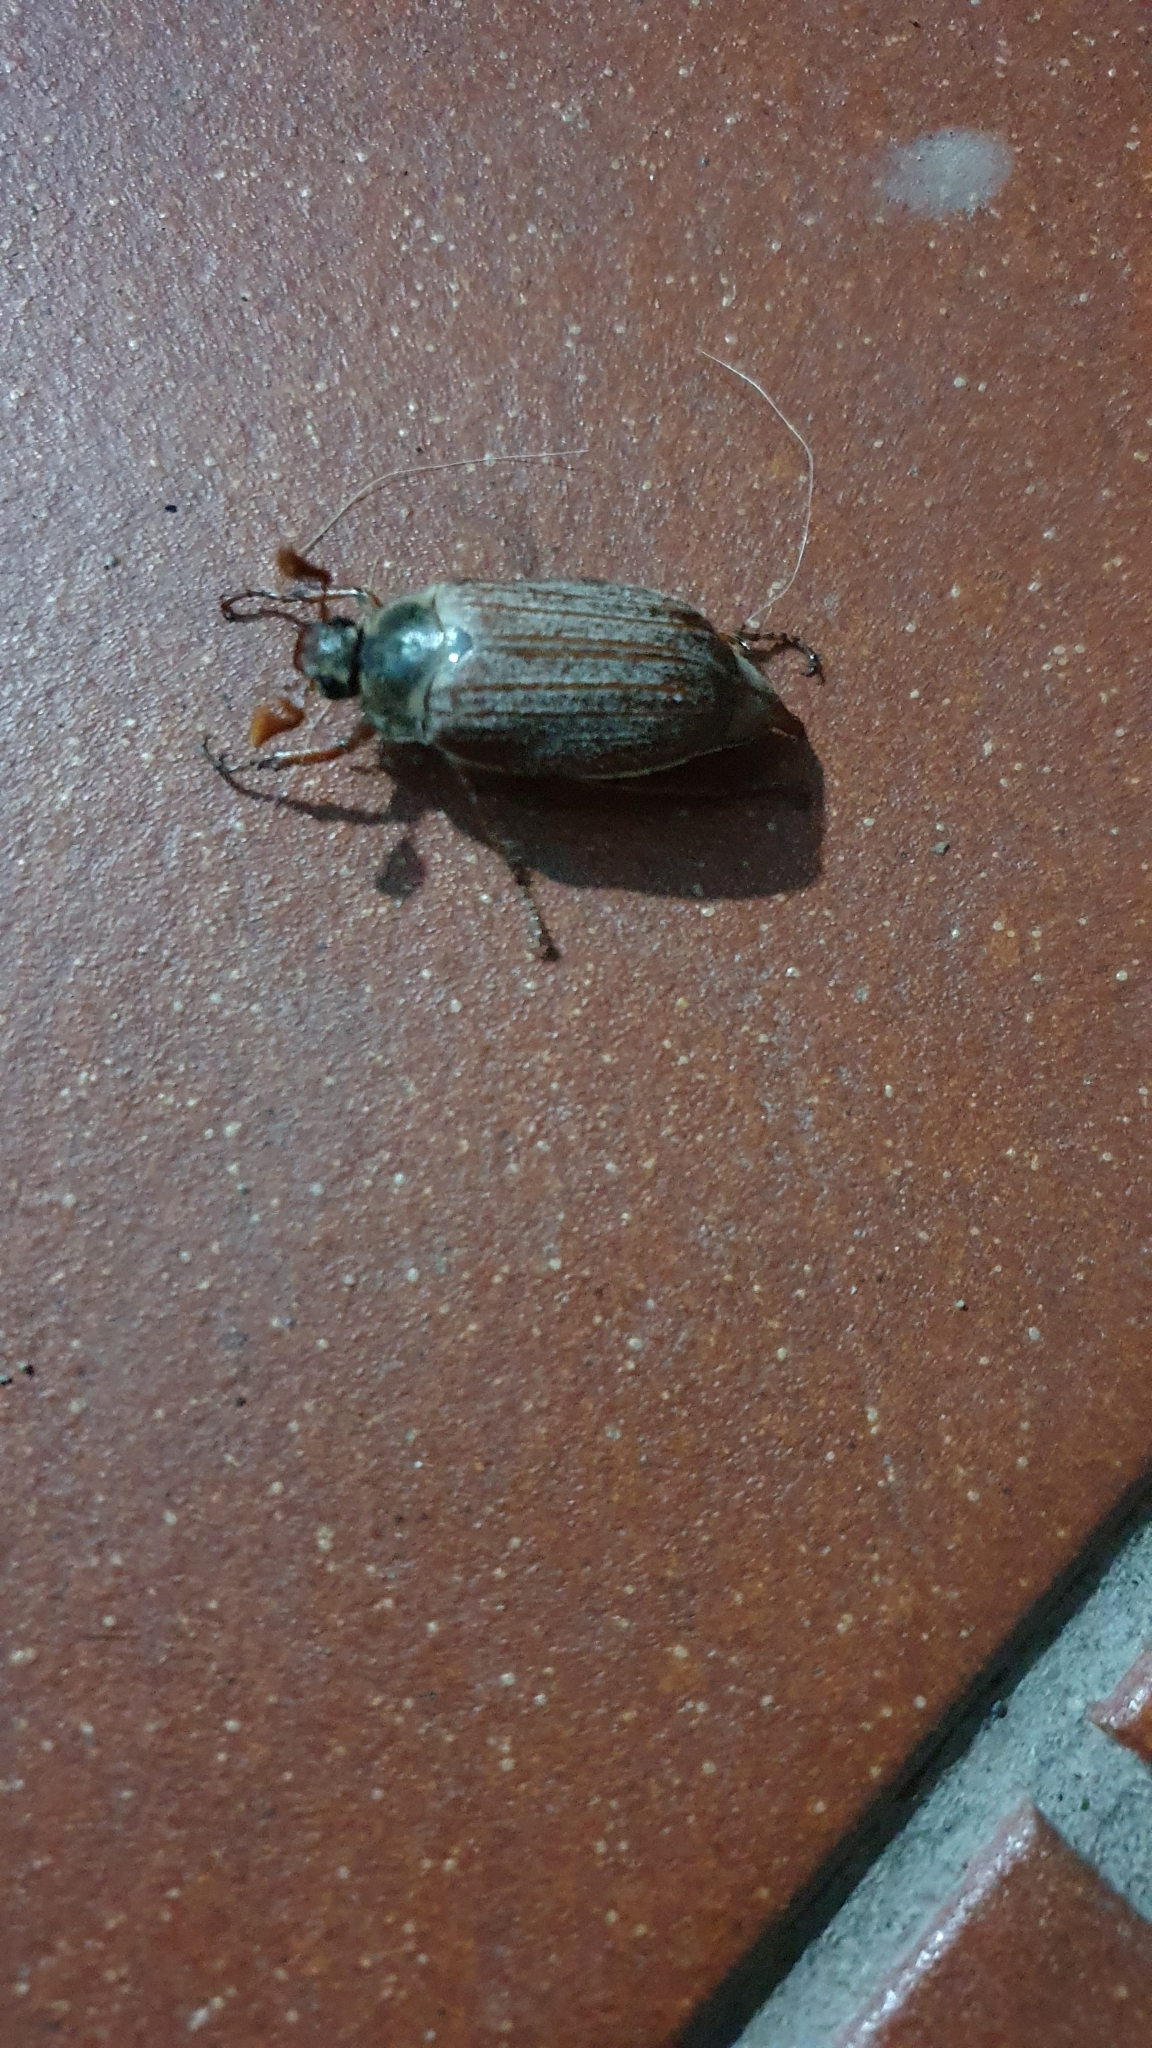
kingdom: Animalia
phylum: Arthropoda
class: Insecta
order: Coleoptera
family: Scarabaeidae
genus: Melolontha
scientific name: Melolontha hippocastani
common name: Chestnut cockchafer
